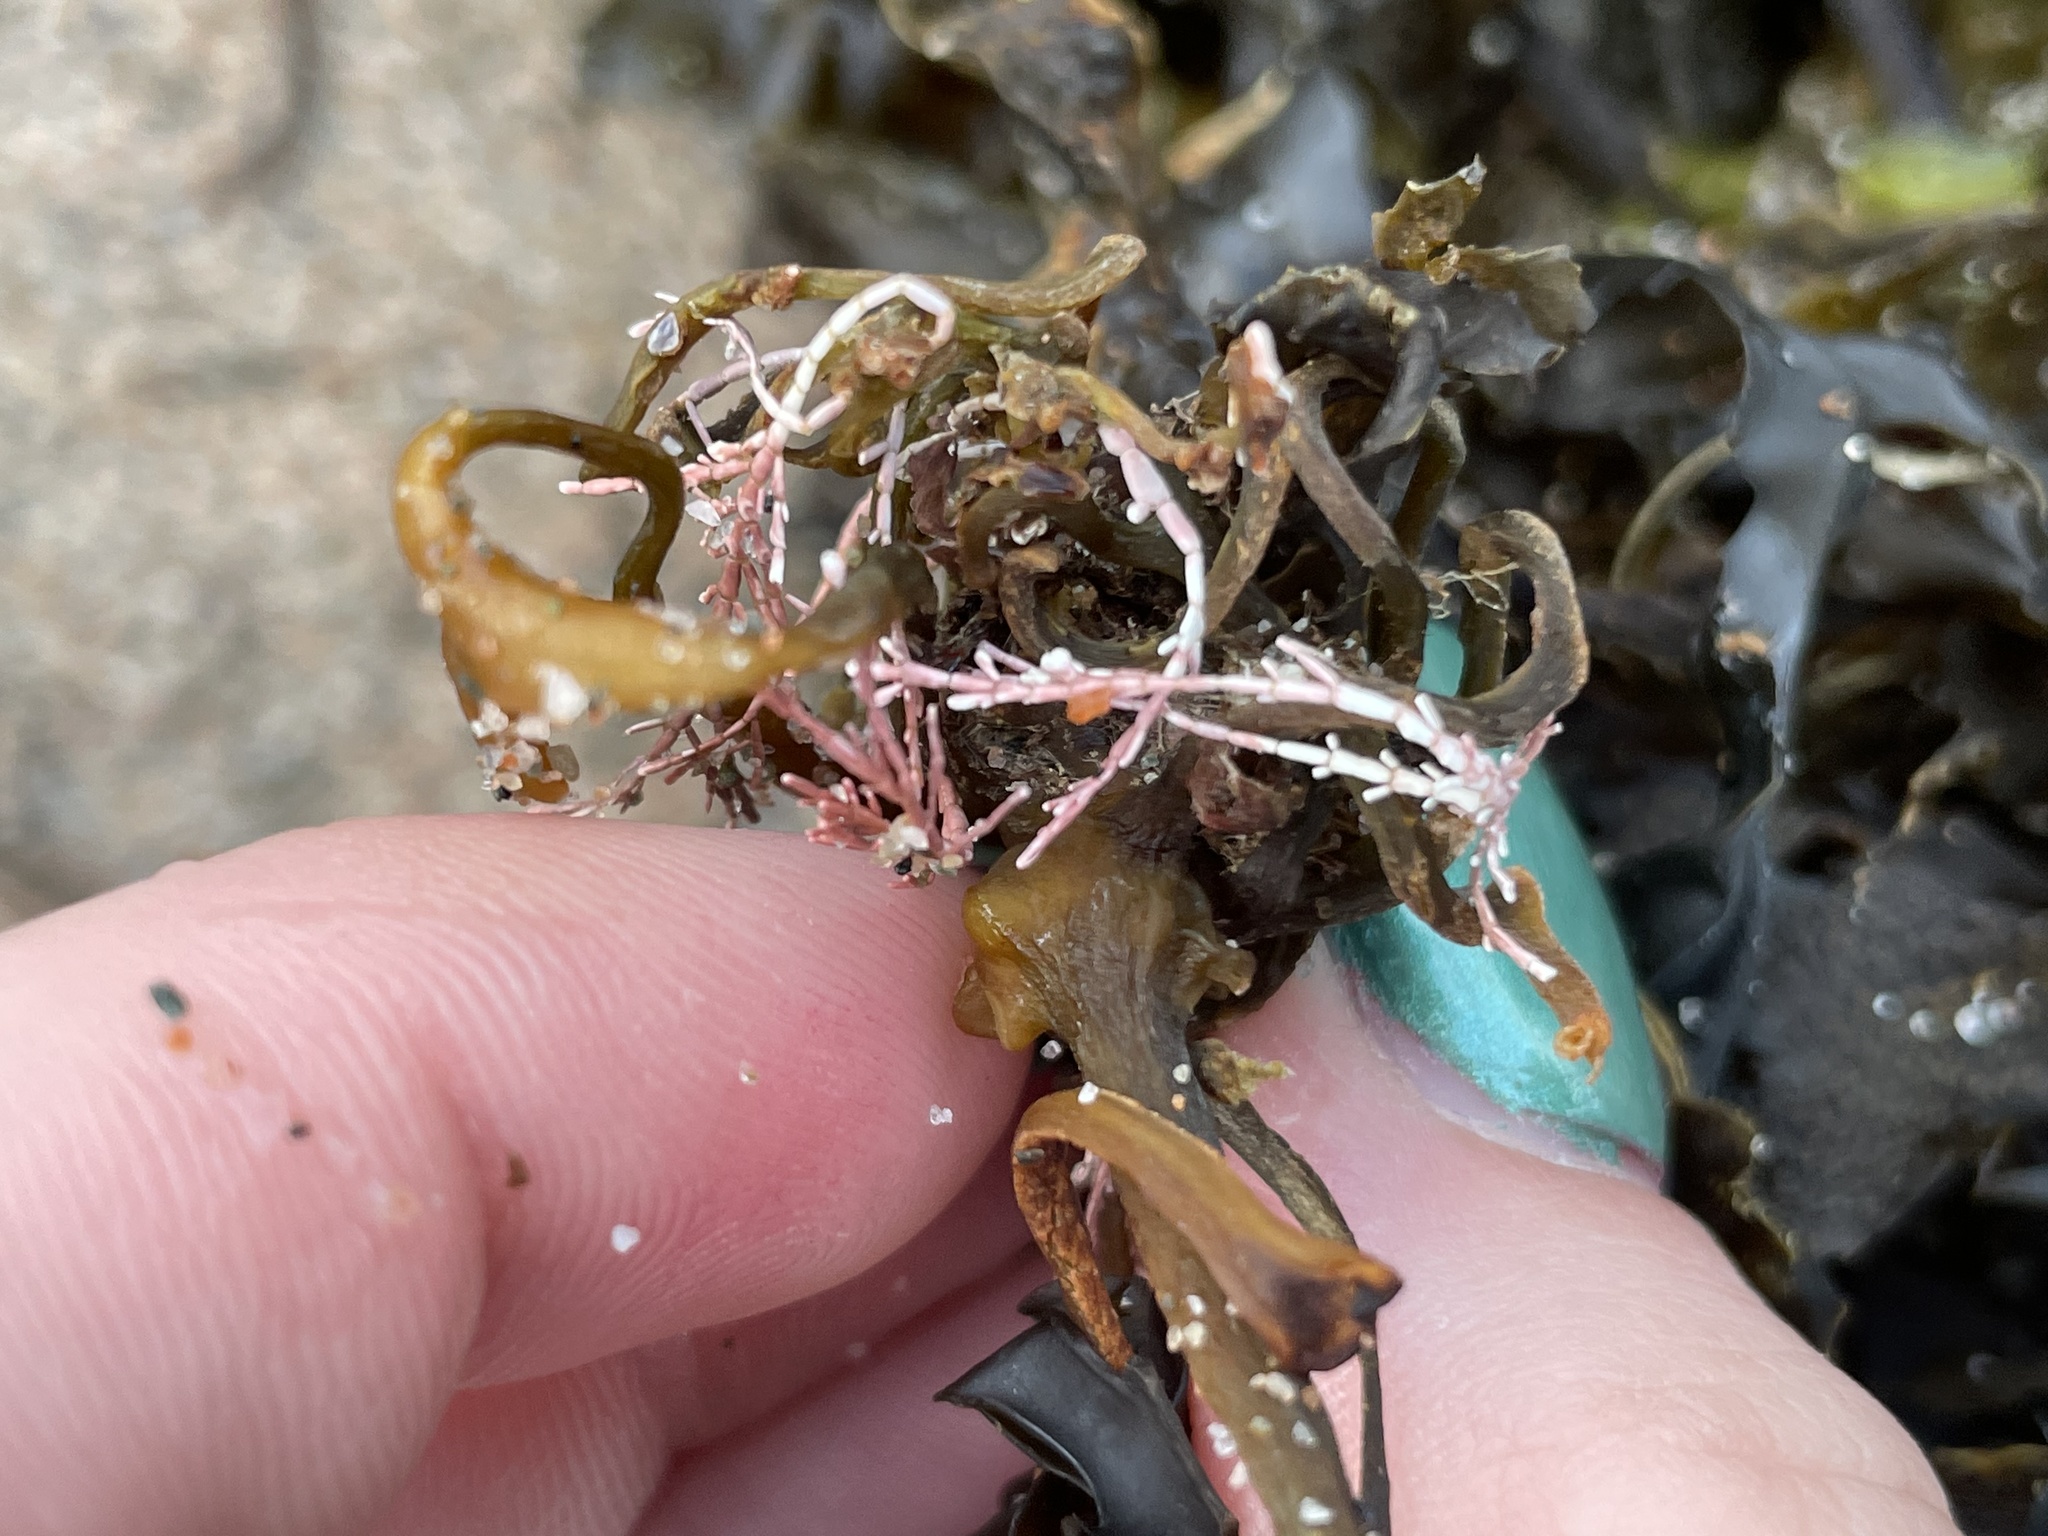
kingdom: Plantae
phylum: Rhodophyta
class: Florideophyceae
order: Corallinales
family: Corallinaceae
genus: Corallina
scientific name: Corallina officinalis
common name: Coral weed
